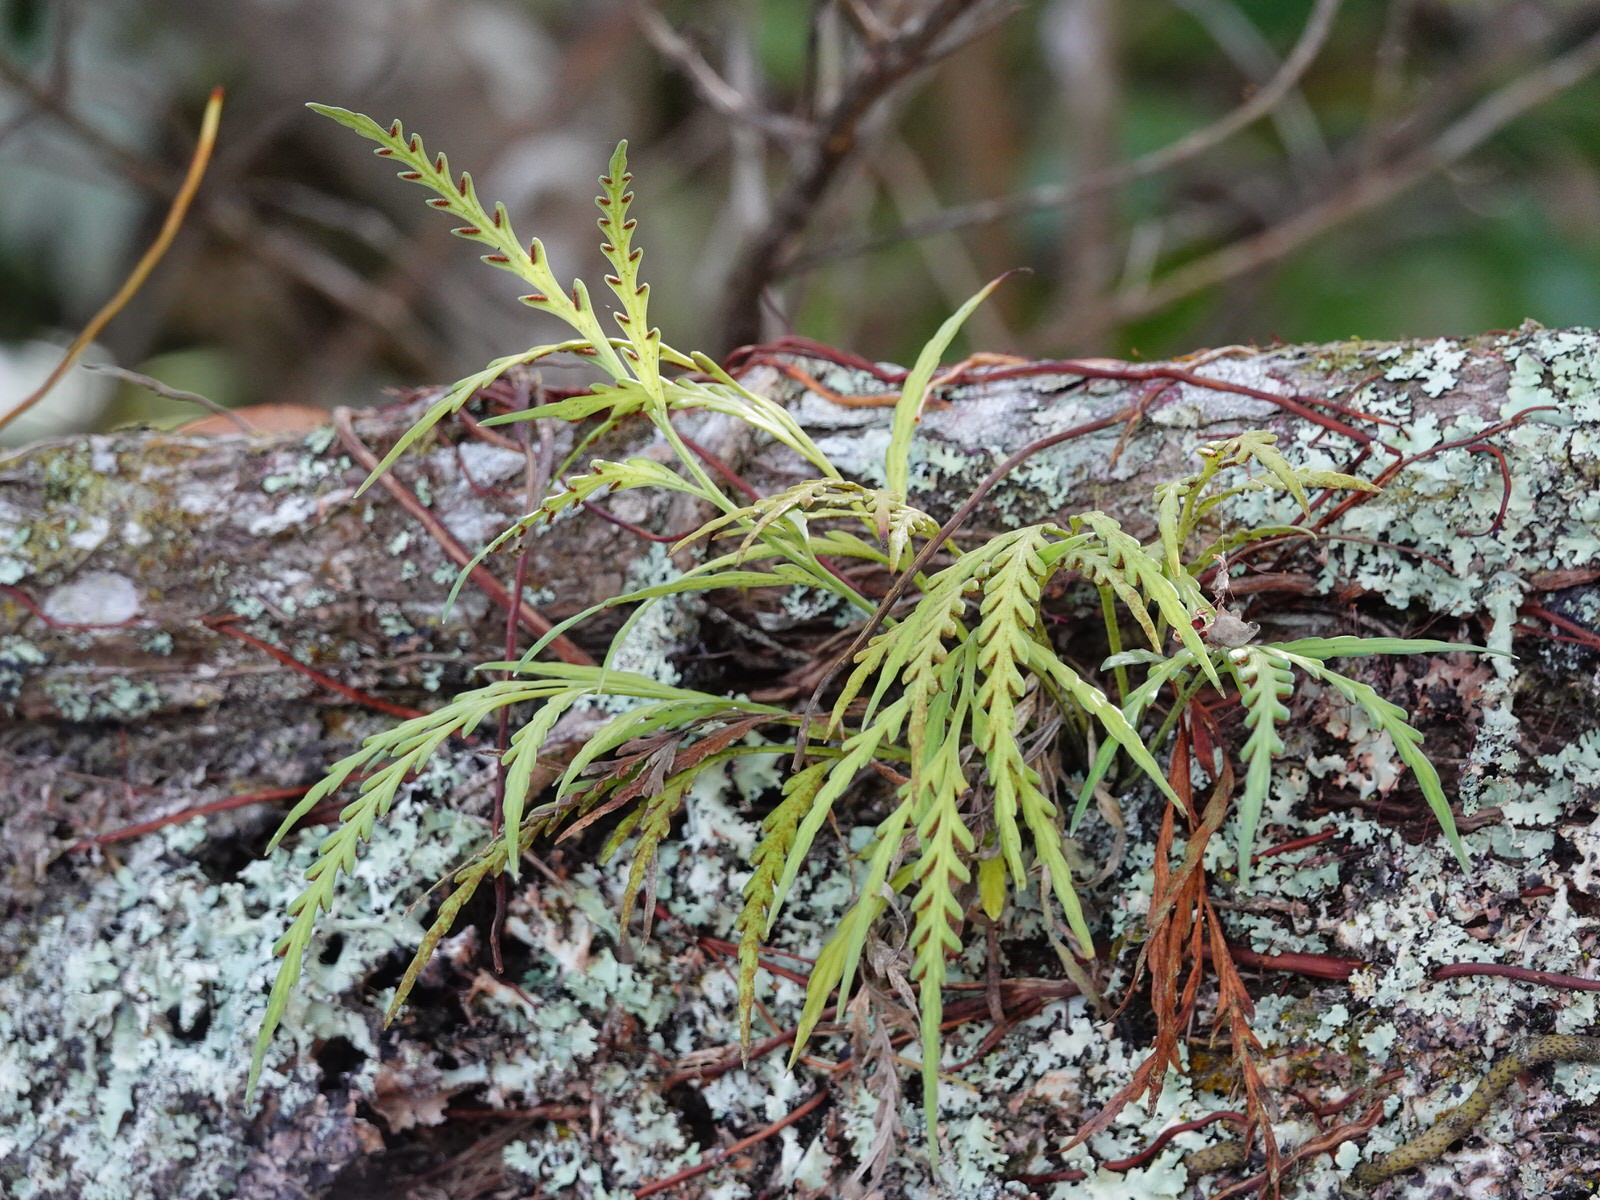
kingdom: Plantae
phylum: Tracheophyta
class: Polypodiopsida
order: Polypodiales
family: Aspleniaceae
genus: Asplenium
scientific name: Asplenium flaccidum
